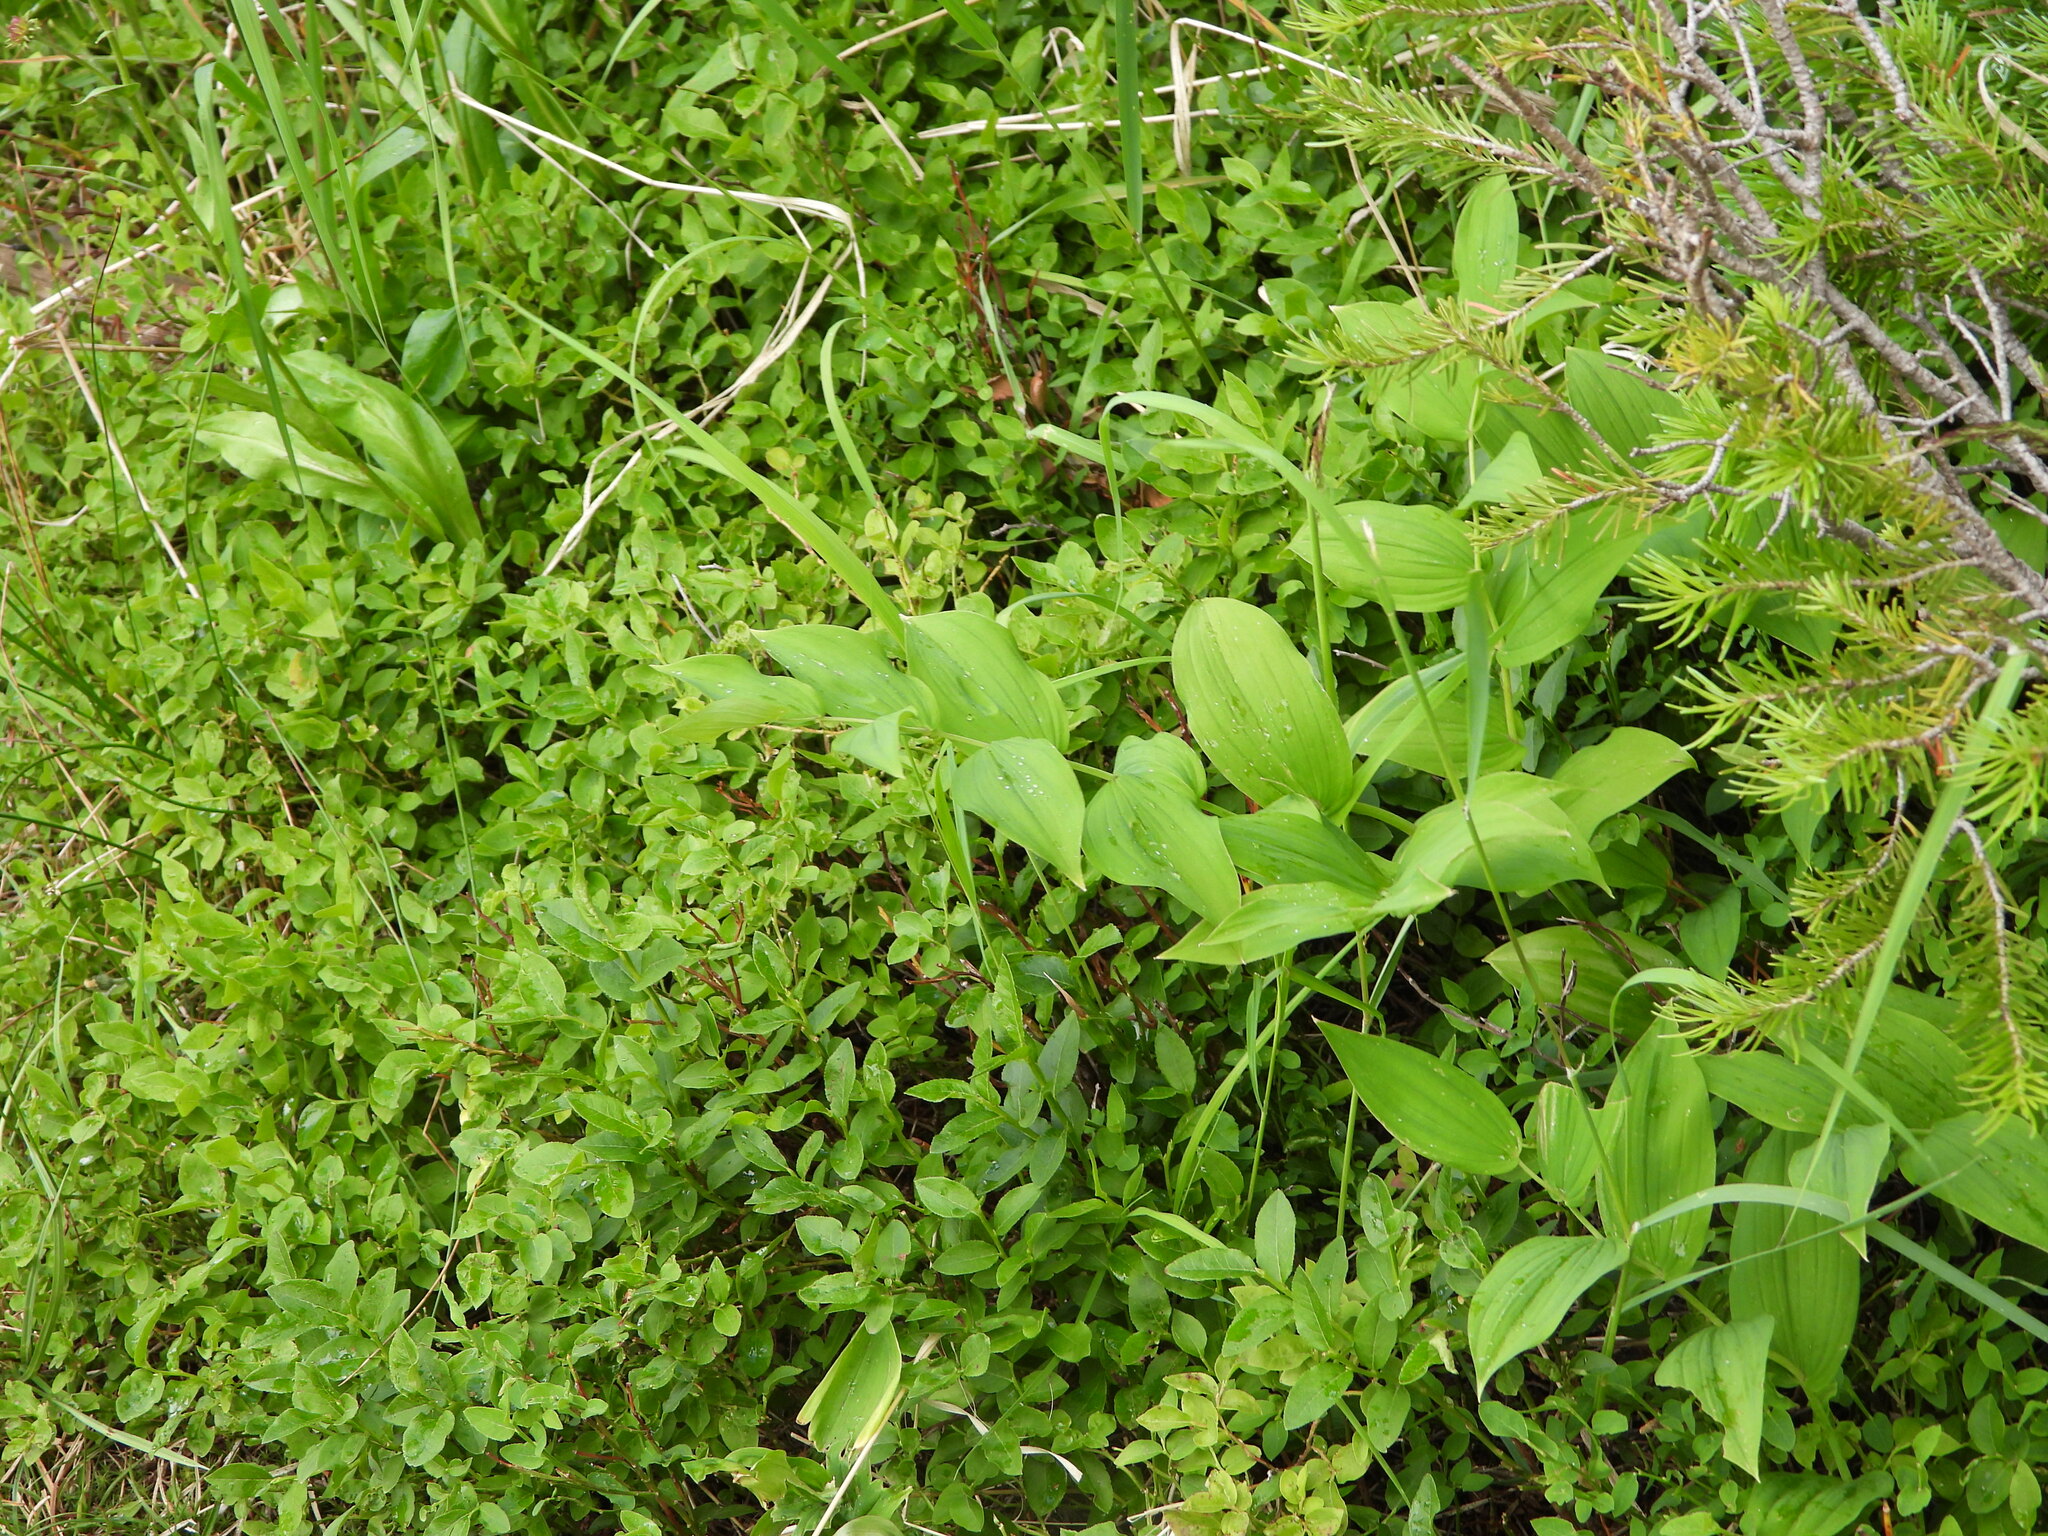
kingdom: Plantae
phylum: Tracheophyta
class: Liliopsida
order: Liliales
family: Liliaceae
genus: Streptopus
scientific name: Streptopus amplexifolius
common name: Clasp twisted stalk
